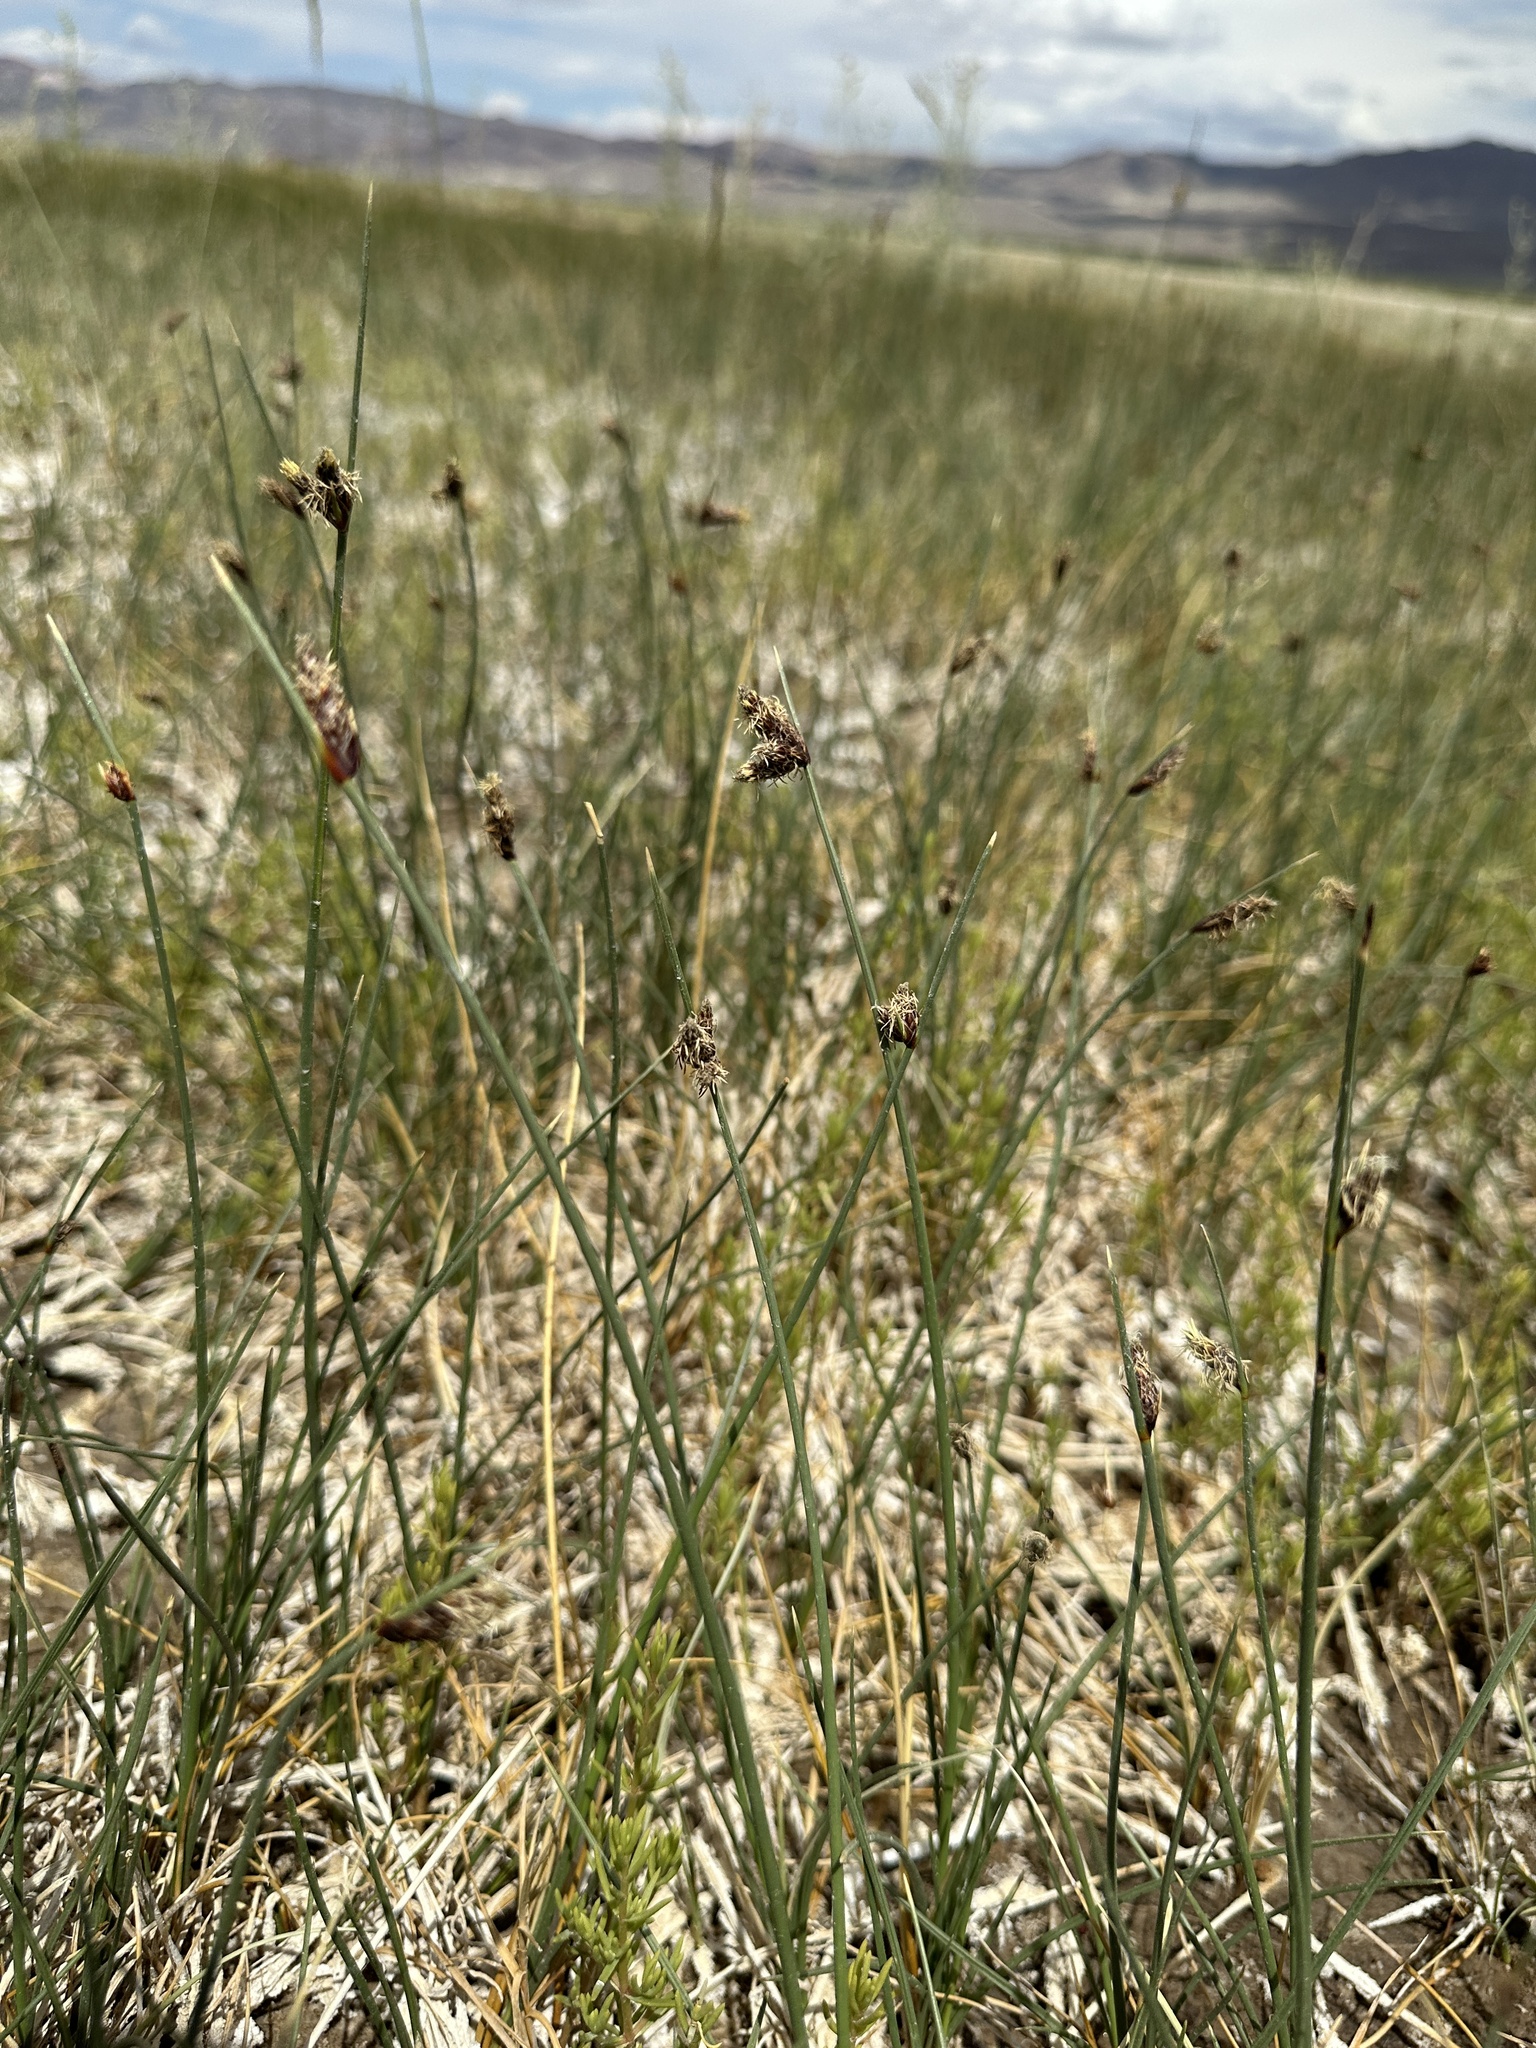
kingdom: Plantae
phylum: Tracheophyta
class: Liliopsida
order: Poales
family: Cyperaceae
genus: Amphiscirpus
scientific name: Amphiscirpus nevadensis
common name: Nevada bulrush
